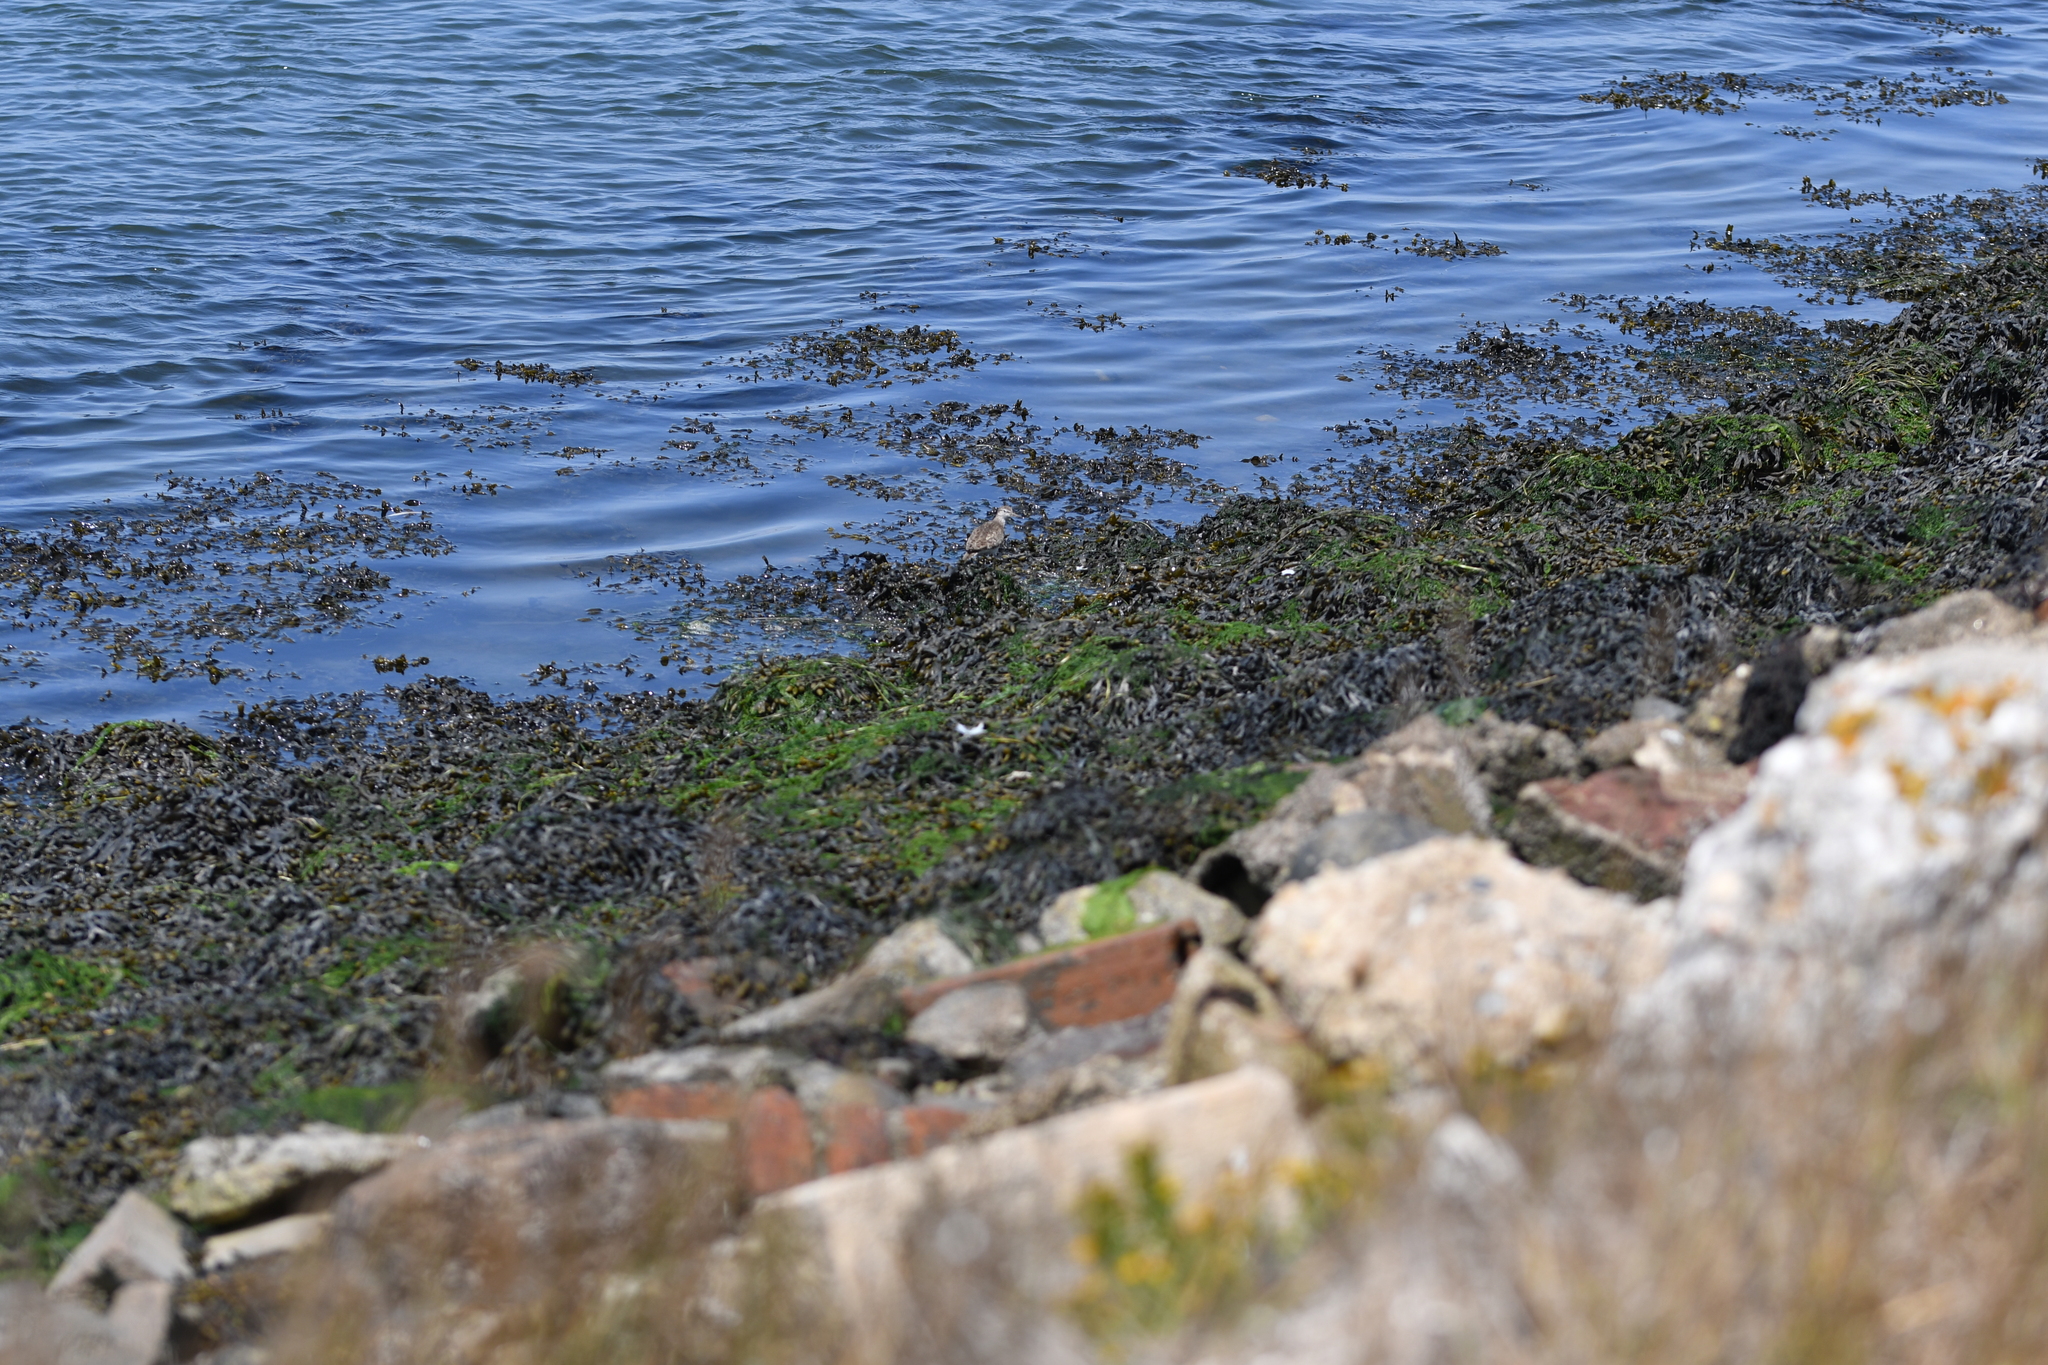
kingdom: Animalia
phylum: Chordata
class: Aves
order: Charadriiformes
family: Scolopacidae
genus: Actitis
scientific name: Actitis hypoleucos
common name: Common sandpiper
